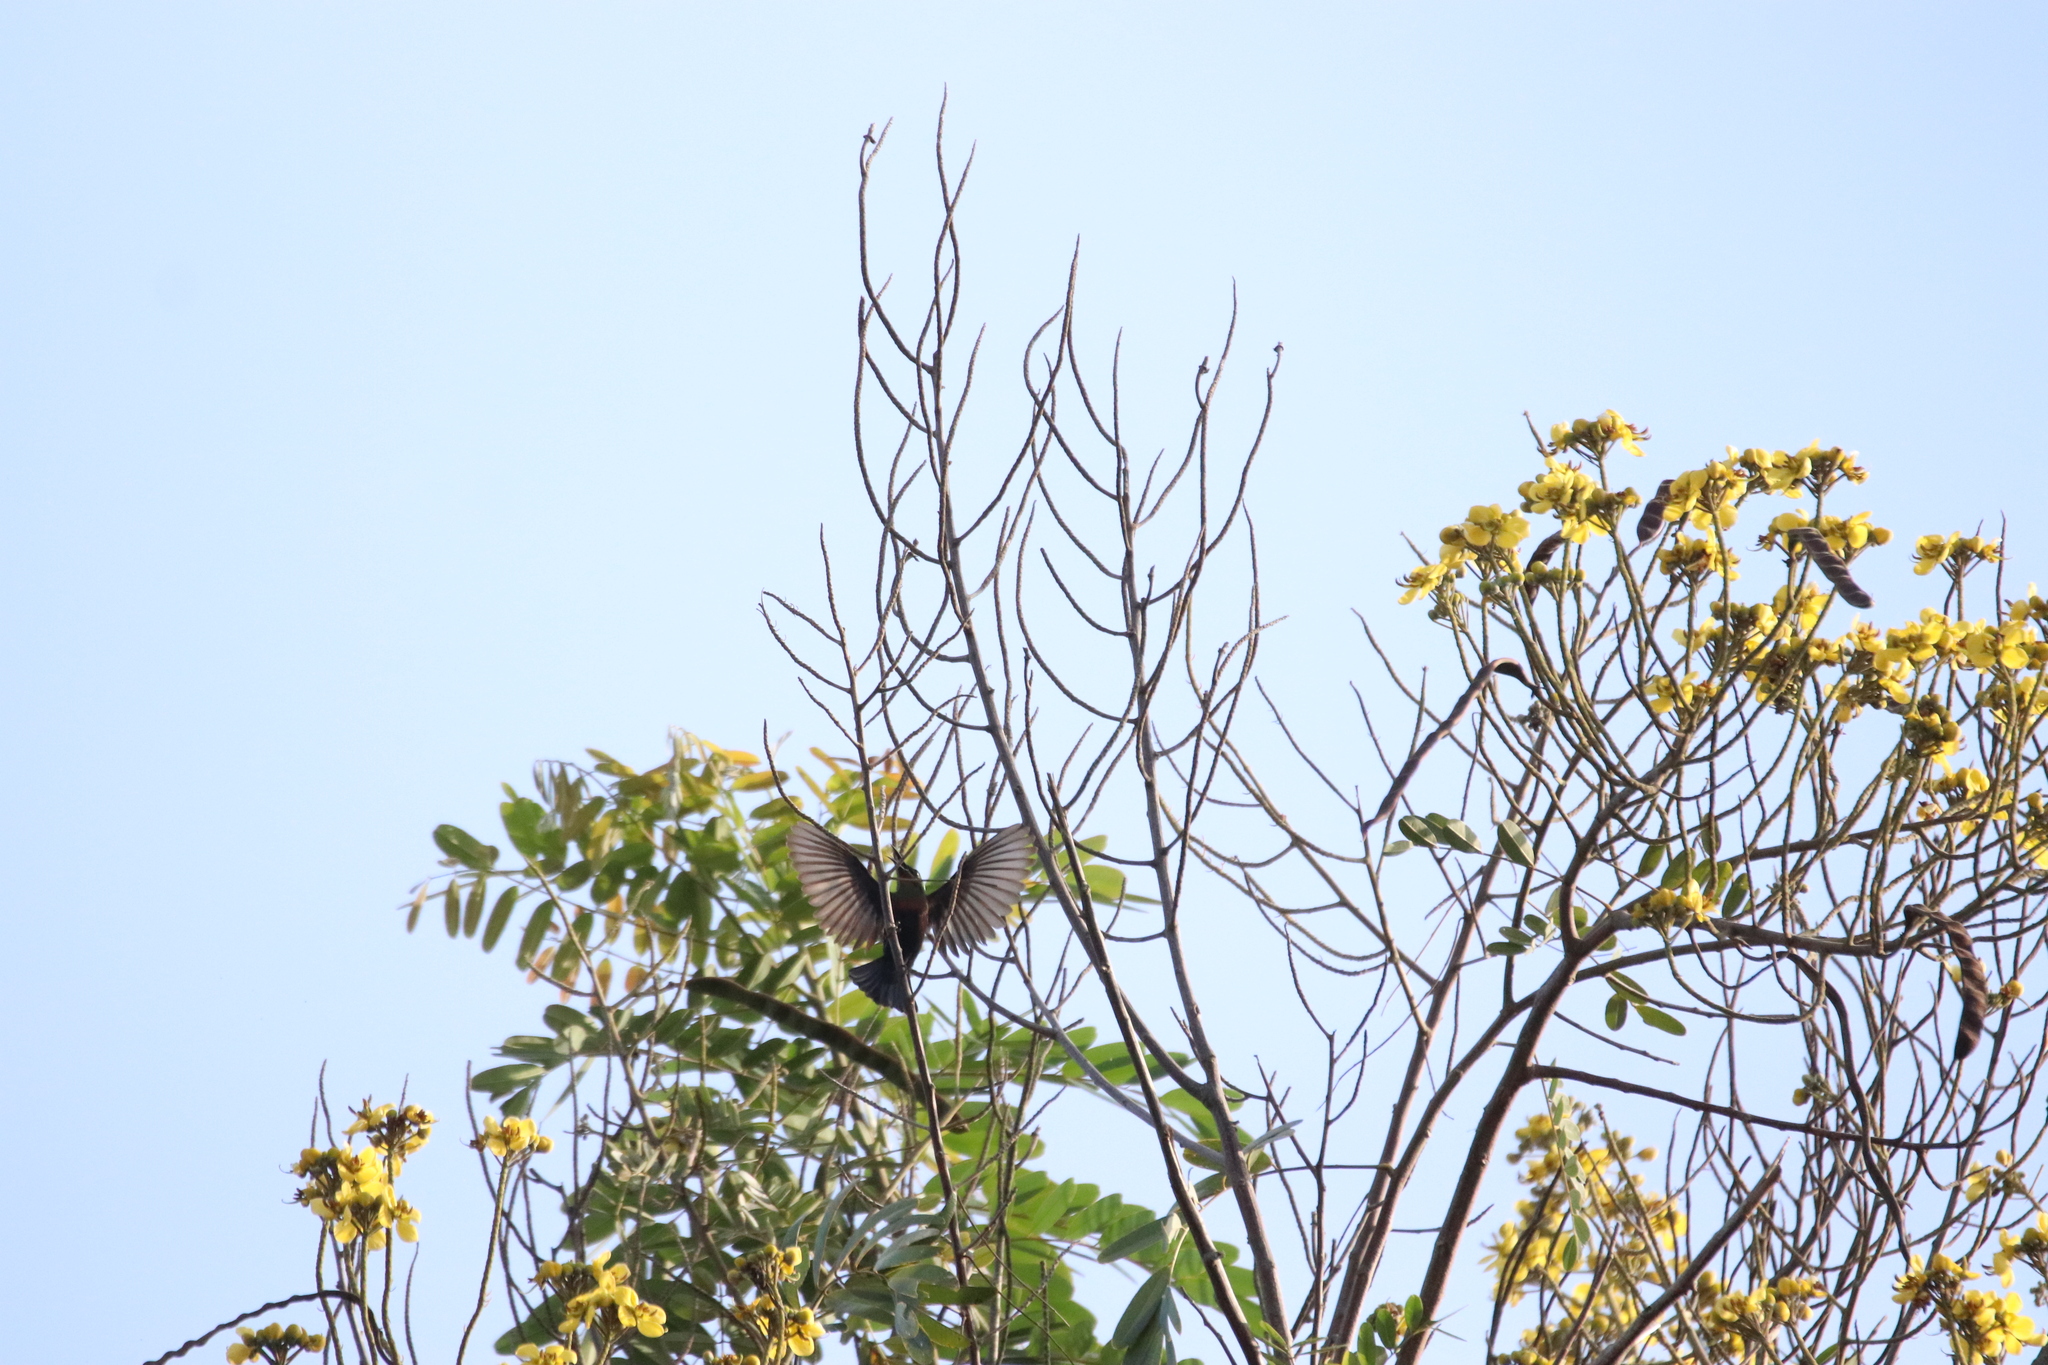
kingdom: Animalia
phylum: Chordata
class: Aves
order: Passeriformes
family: Nectariniidae
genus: Cinnyris
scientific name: Cinnyris cupreus
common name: Copper sunbird
